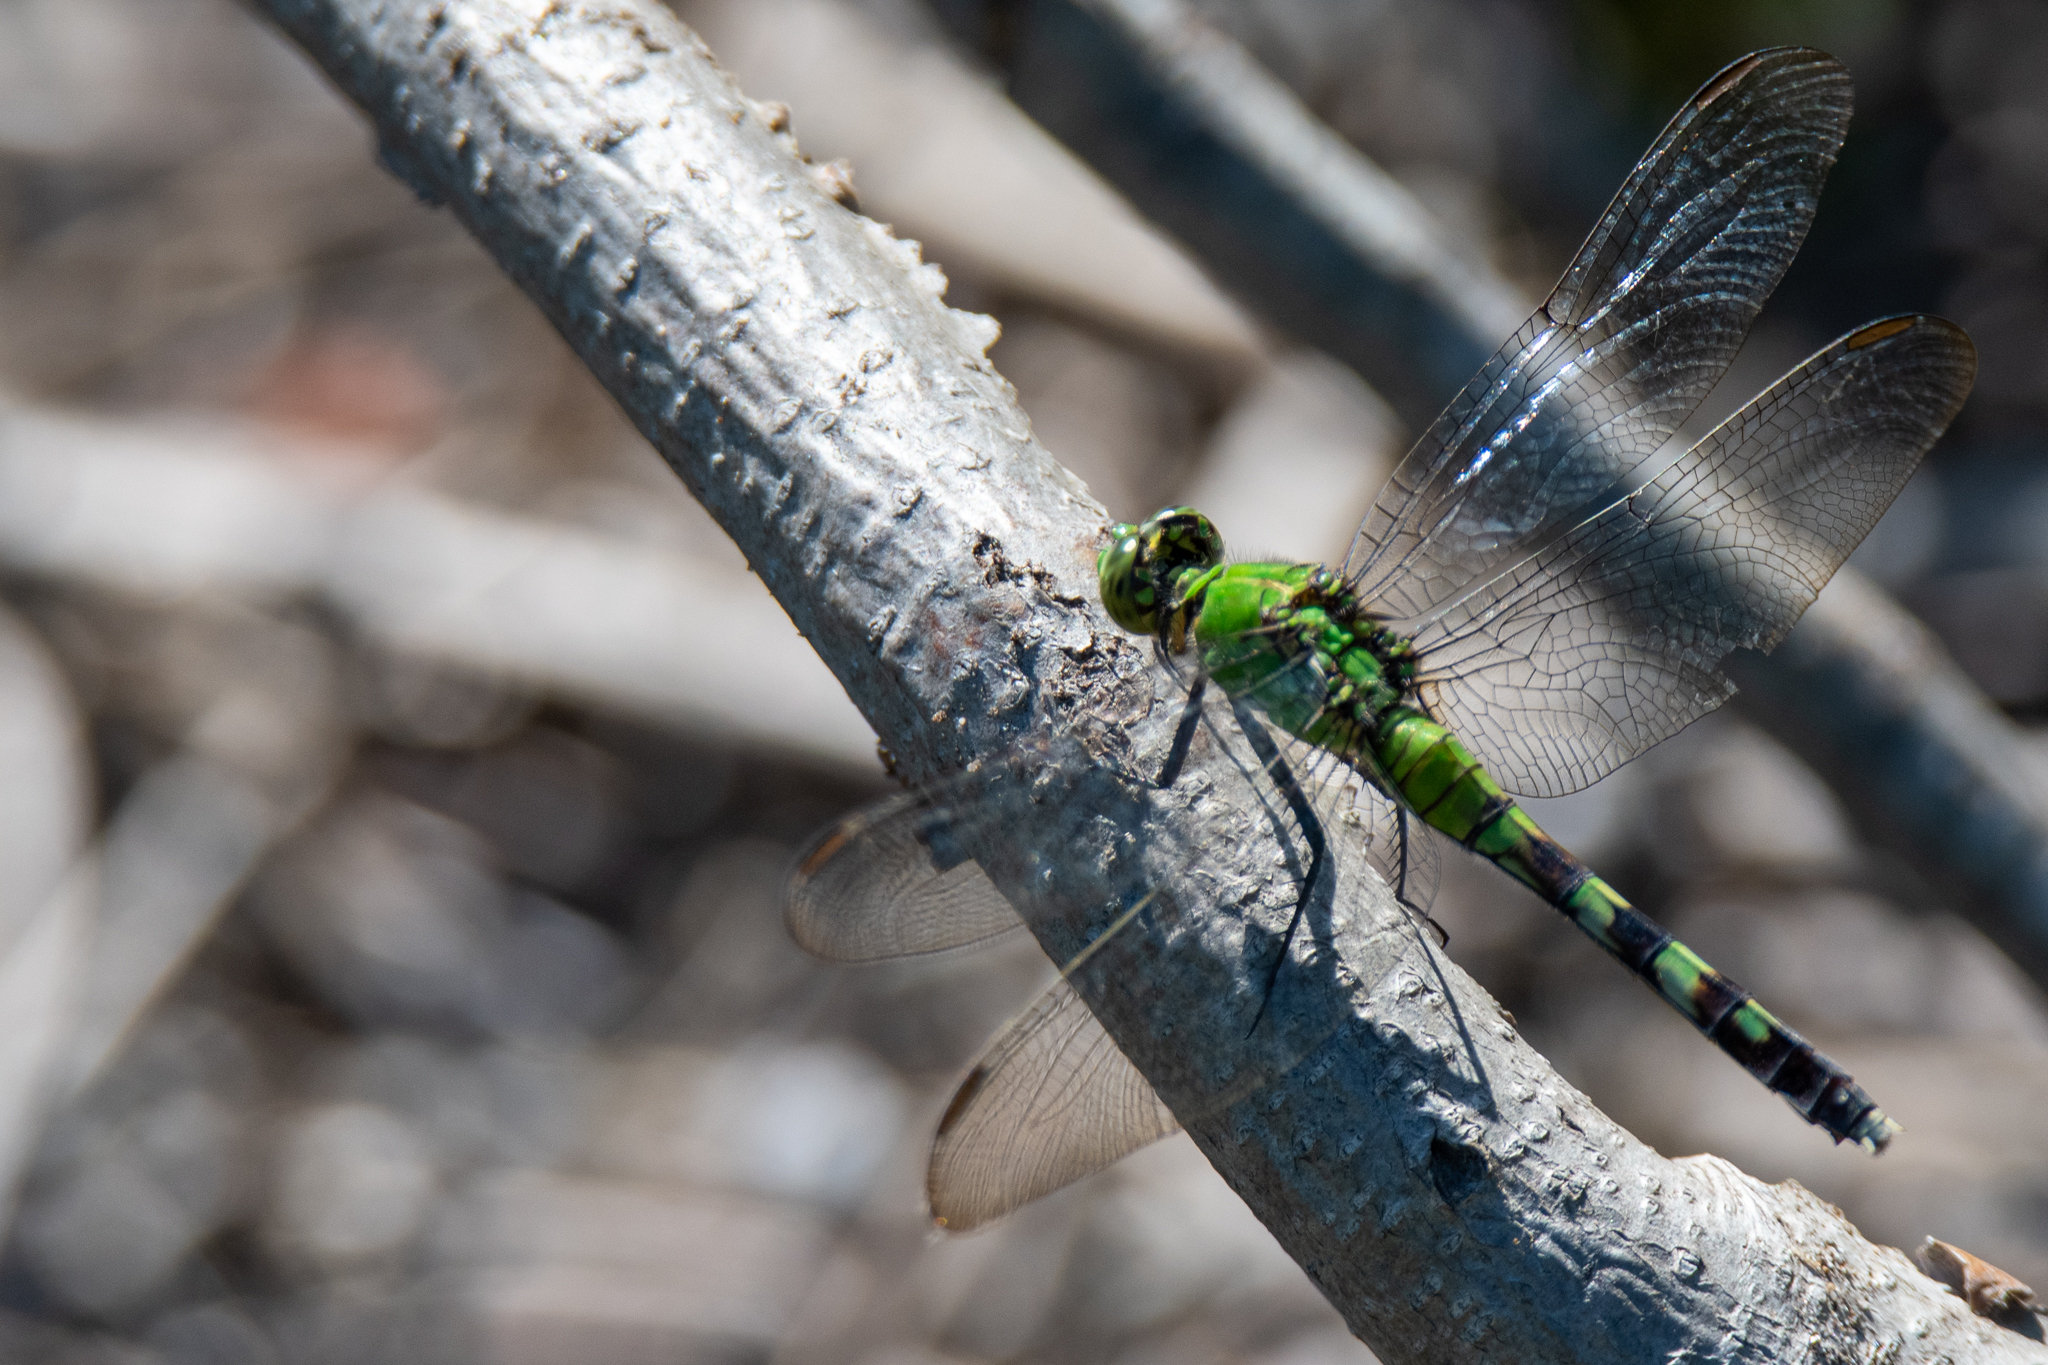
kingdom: Animalia
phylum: Arthropoda
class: Insecta
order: Odonata
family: Libellulidae
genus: Erythemis
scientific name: Erythemis simplicicollis
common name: Eastern pondhawk
